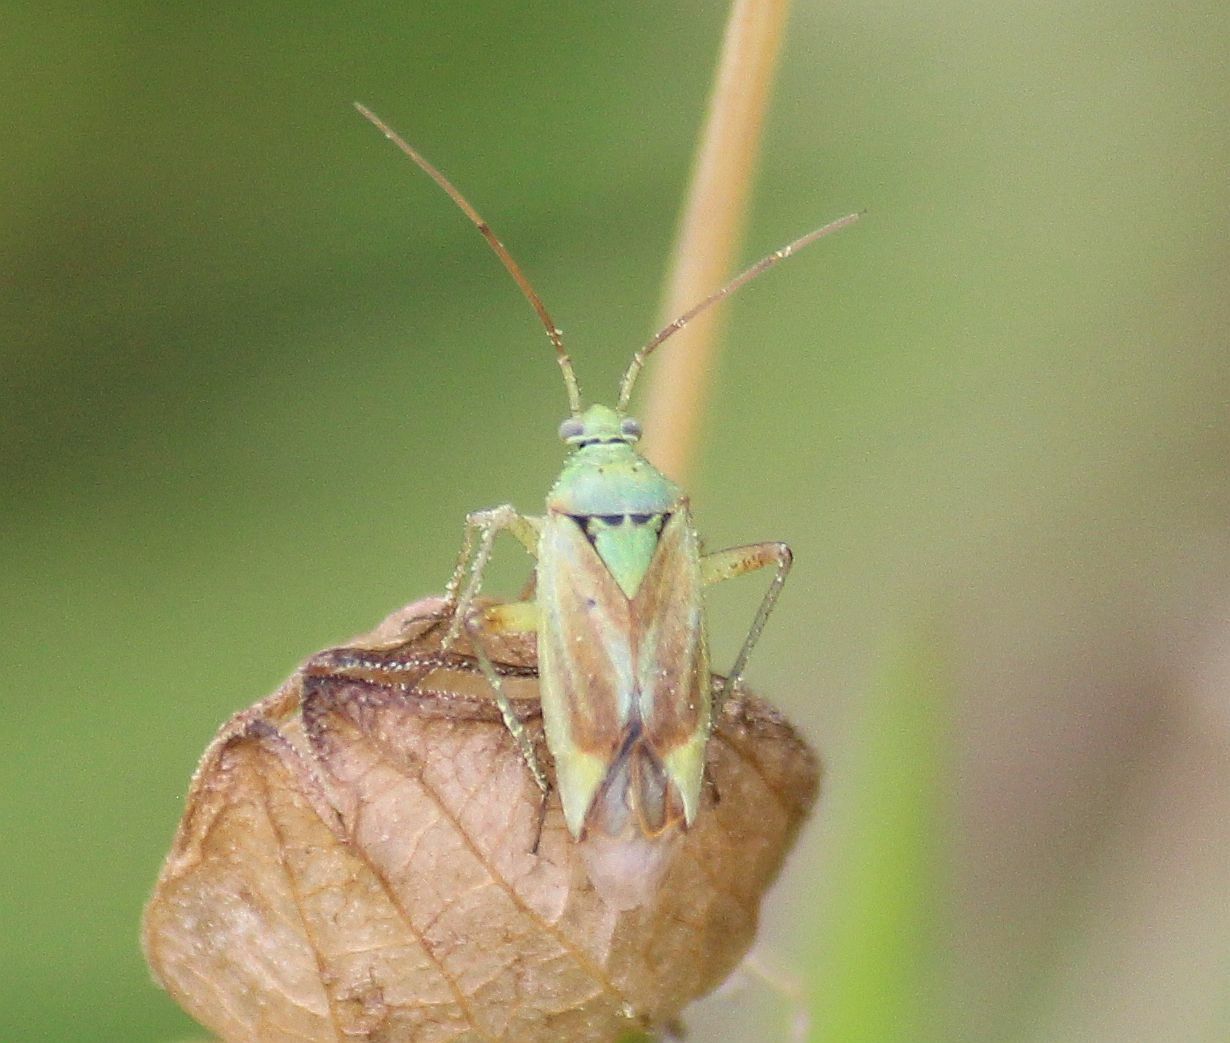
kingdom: Animalia
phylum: Arthropoda
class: Insecta
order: Hemiptera
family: Miridae
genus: Closterotomus
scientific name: Closterotomus norvegicus
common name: Plant bug
